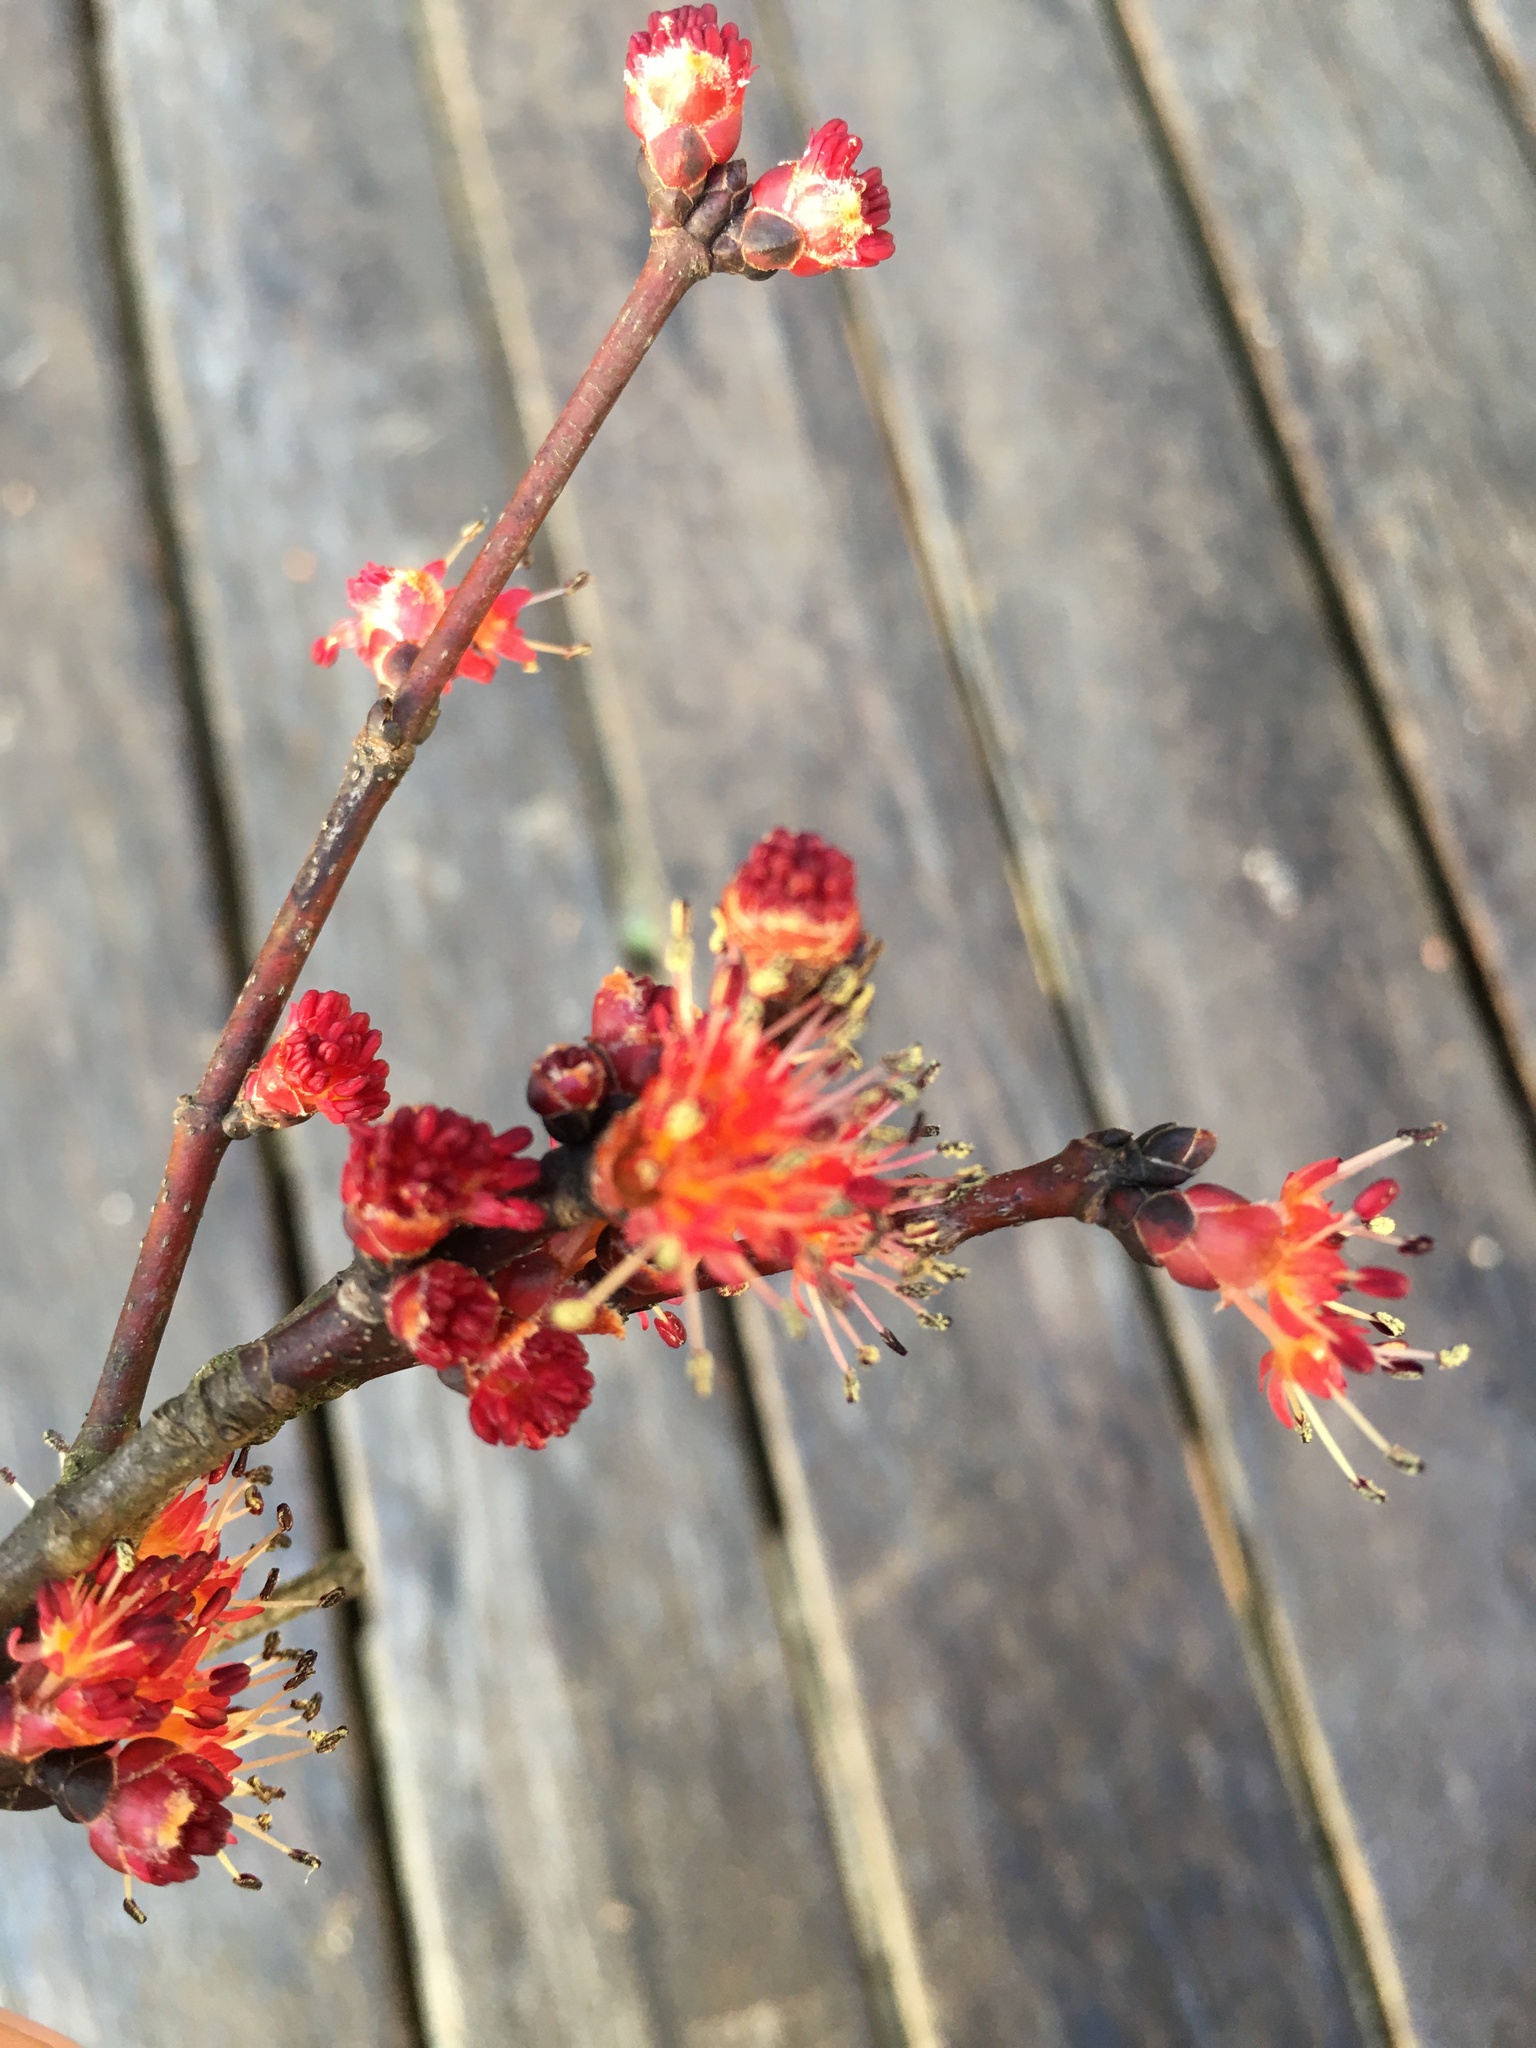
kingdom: Plantae
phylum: Tracheophyta
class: Magnoliopsida
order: Sapindales
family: Sapindaceae
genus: Acer
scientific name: Acer rubrum
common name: Red maple
